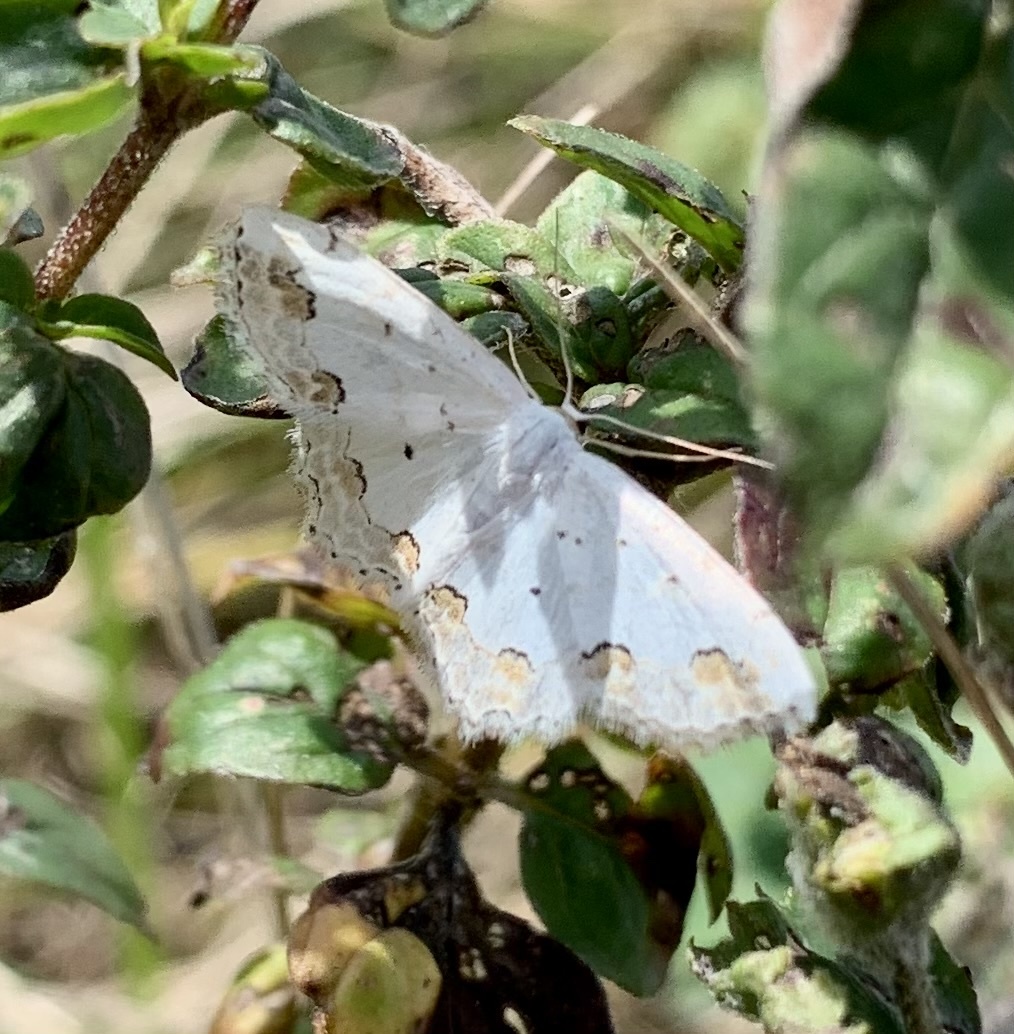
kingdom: Animalia
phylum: Arthropoda
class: Insecta
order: Lepidoptera
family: Geometridae
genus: Scopula
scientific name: Scopula ornata
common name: Lace border
